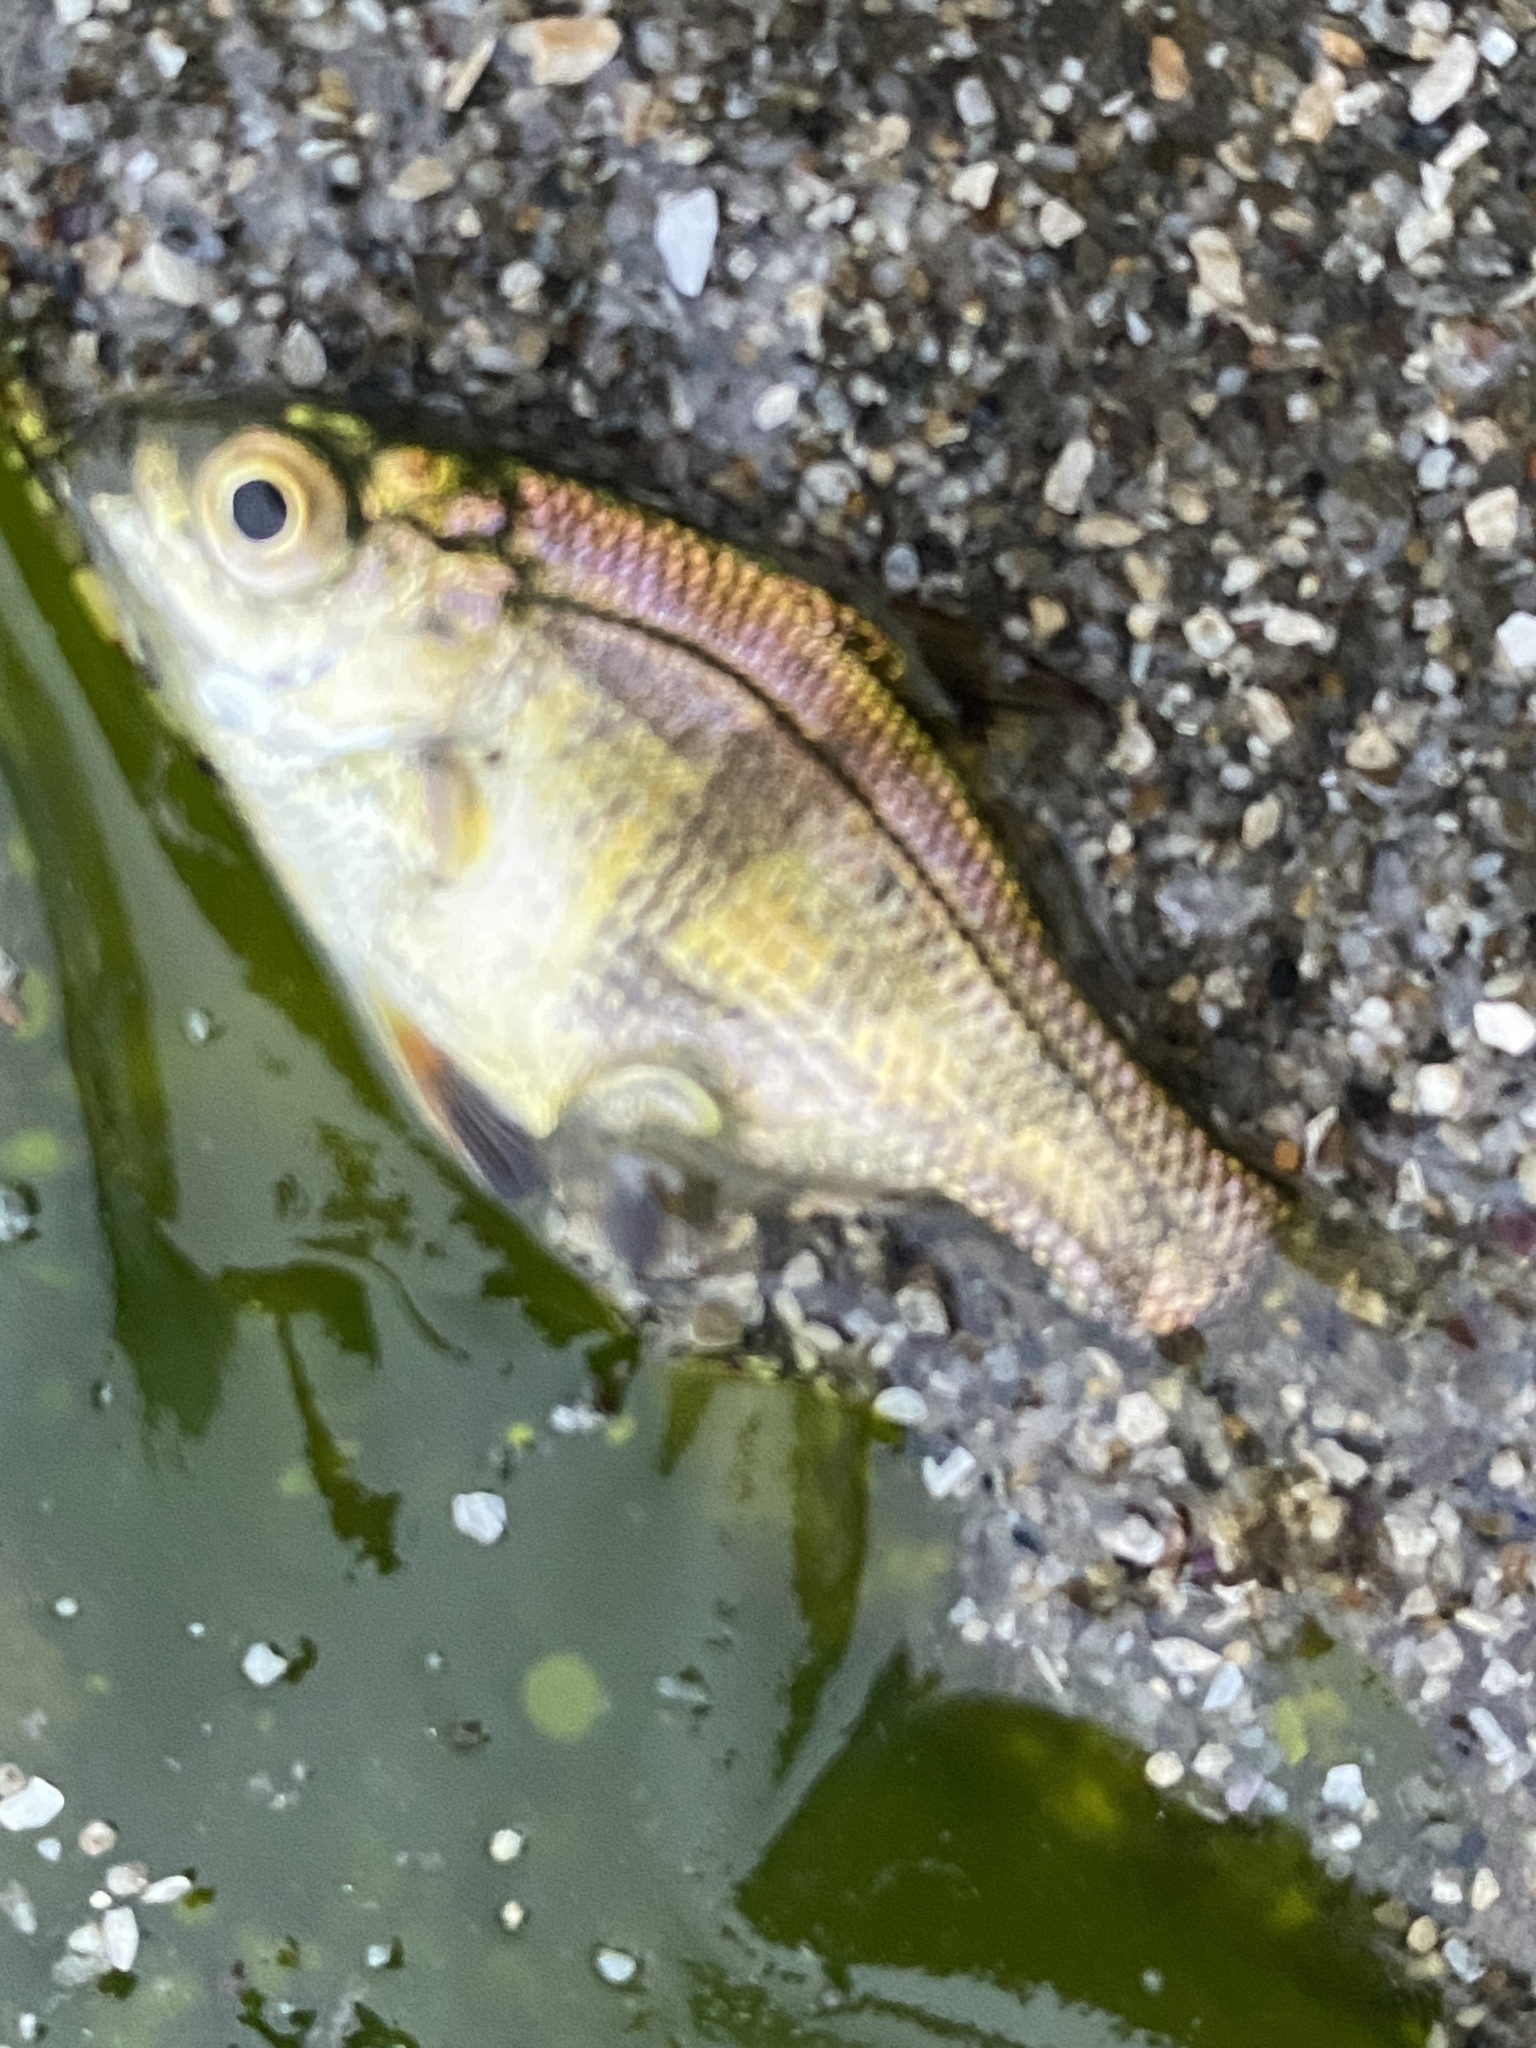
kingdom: Animalia
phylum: Chordata
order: Perciformes
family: Embiotocidae
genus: Micrometrus
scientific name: Micrometrus minimus
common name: Dwarf perch
